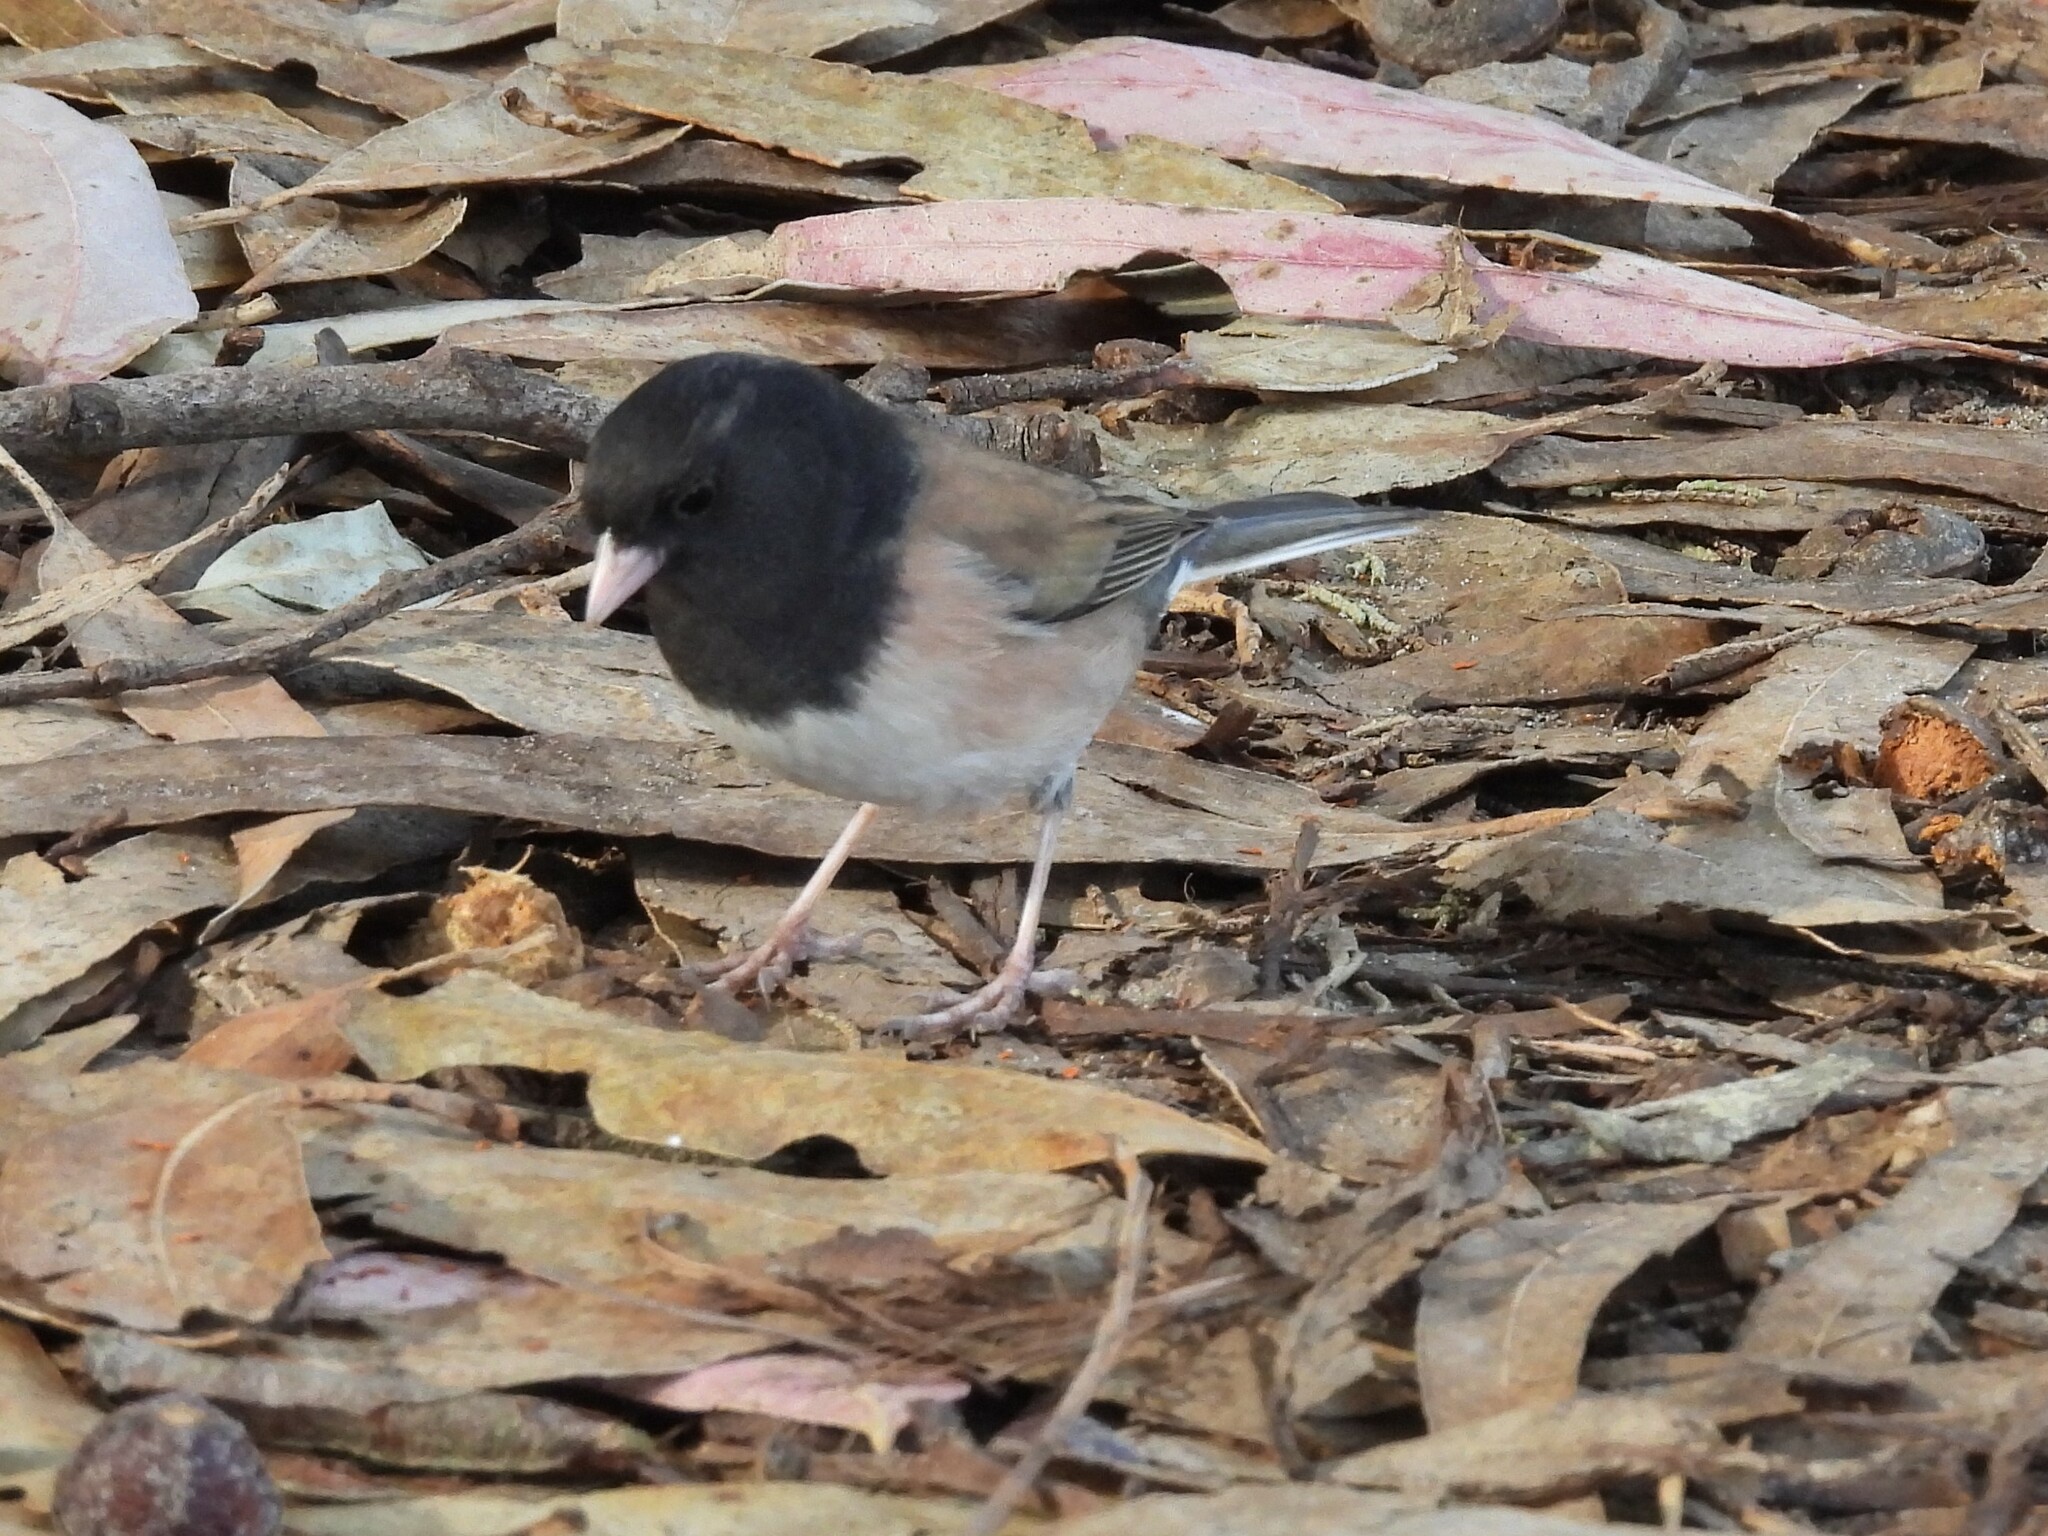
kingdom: Animalia
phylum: Chordata
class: Aves
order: Passeriformes
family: Passerellidae
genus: Junco
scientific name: Junco hyemalis
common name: Dark-eyed junco
